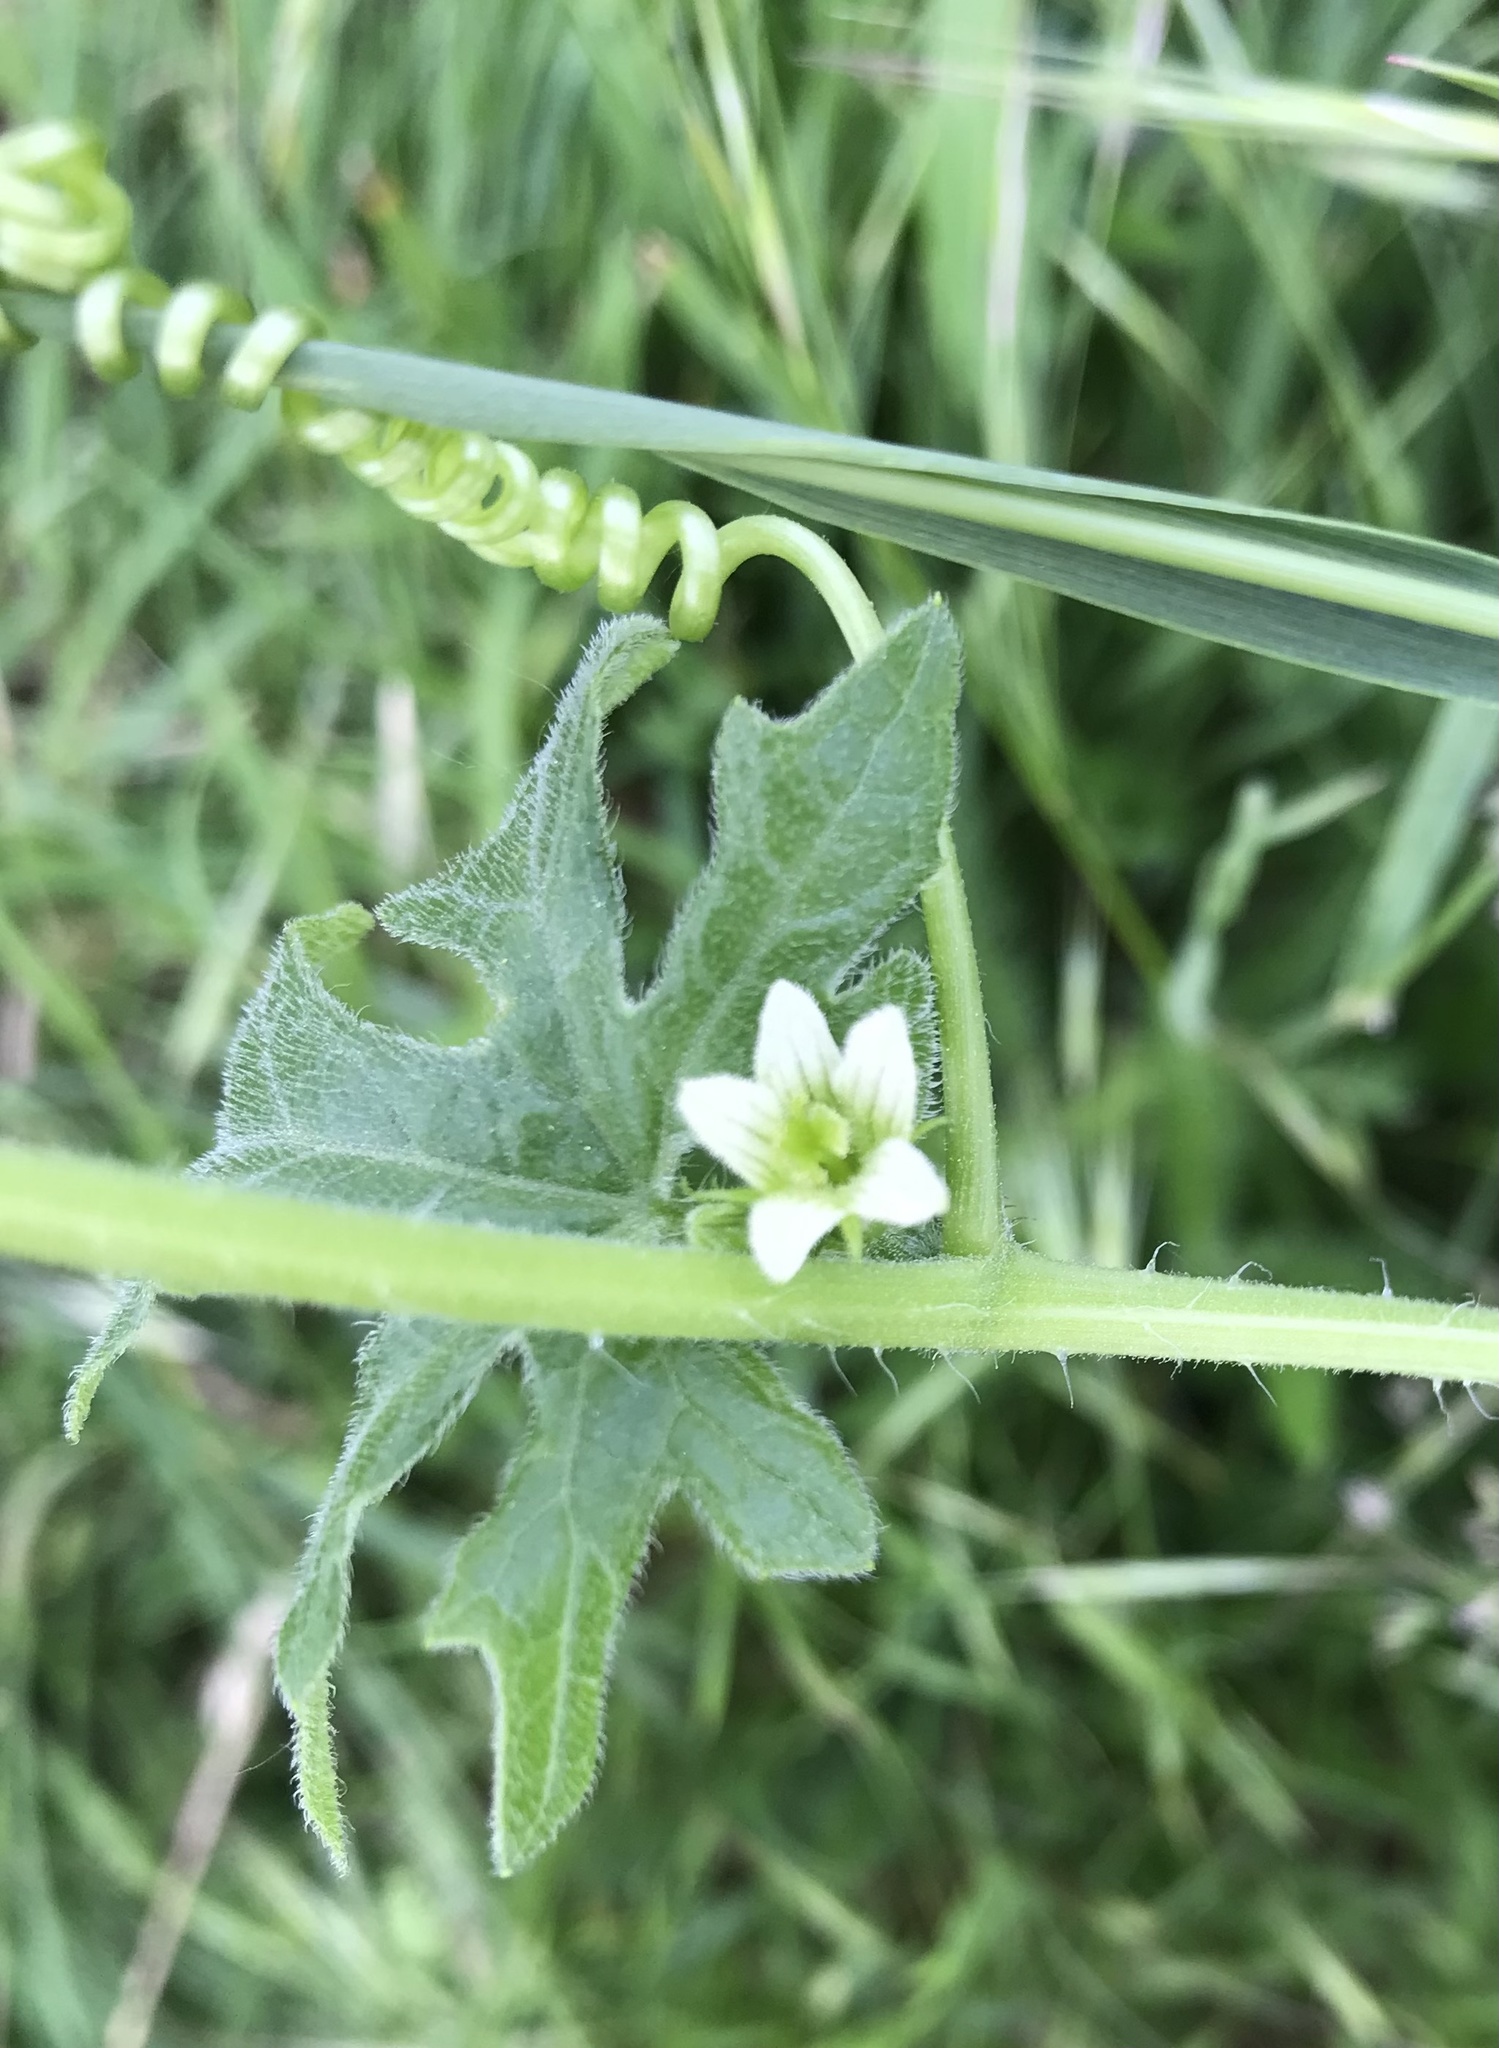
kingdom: Plantae
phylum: Tracheophyta
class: Magnoliopsida
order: Cucurbitales
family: Cucurbitaceae
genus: Bryonia
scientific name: Bryonia cretica
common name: Cretan bryony
